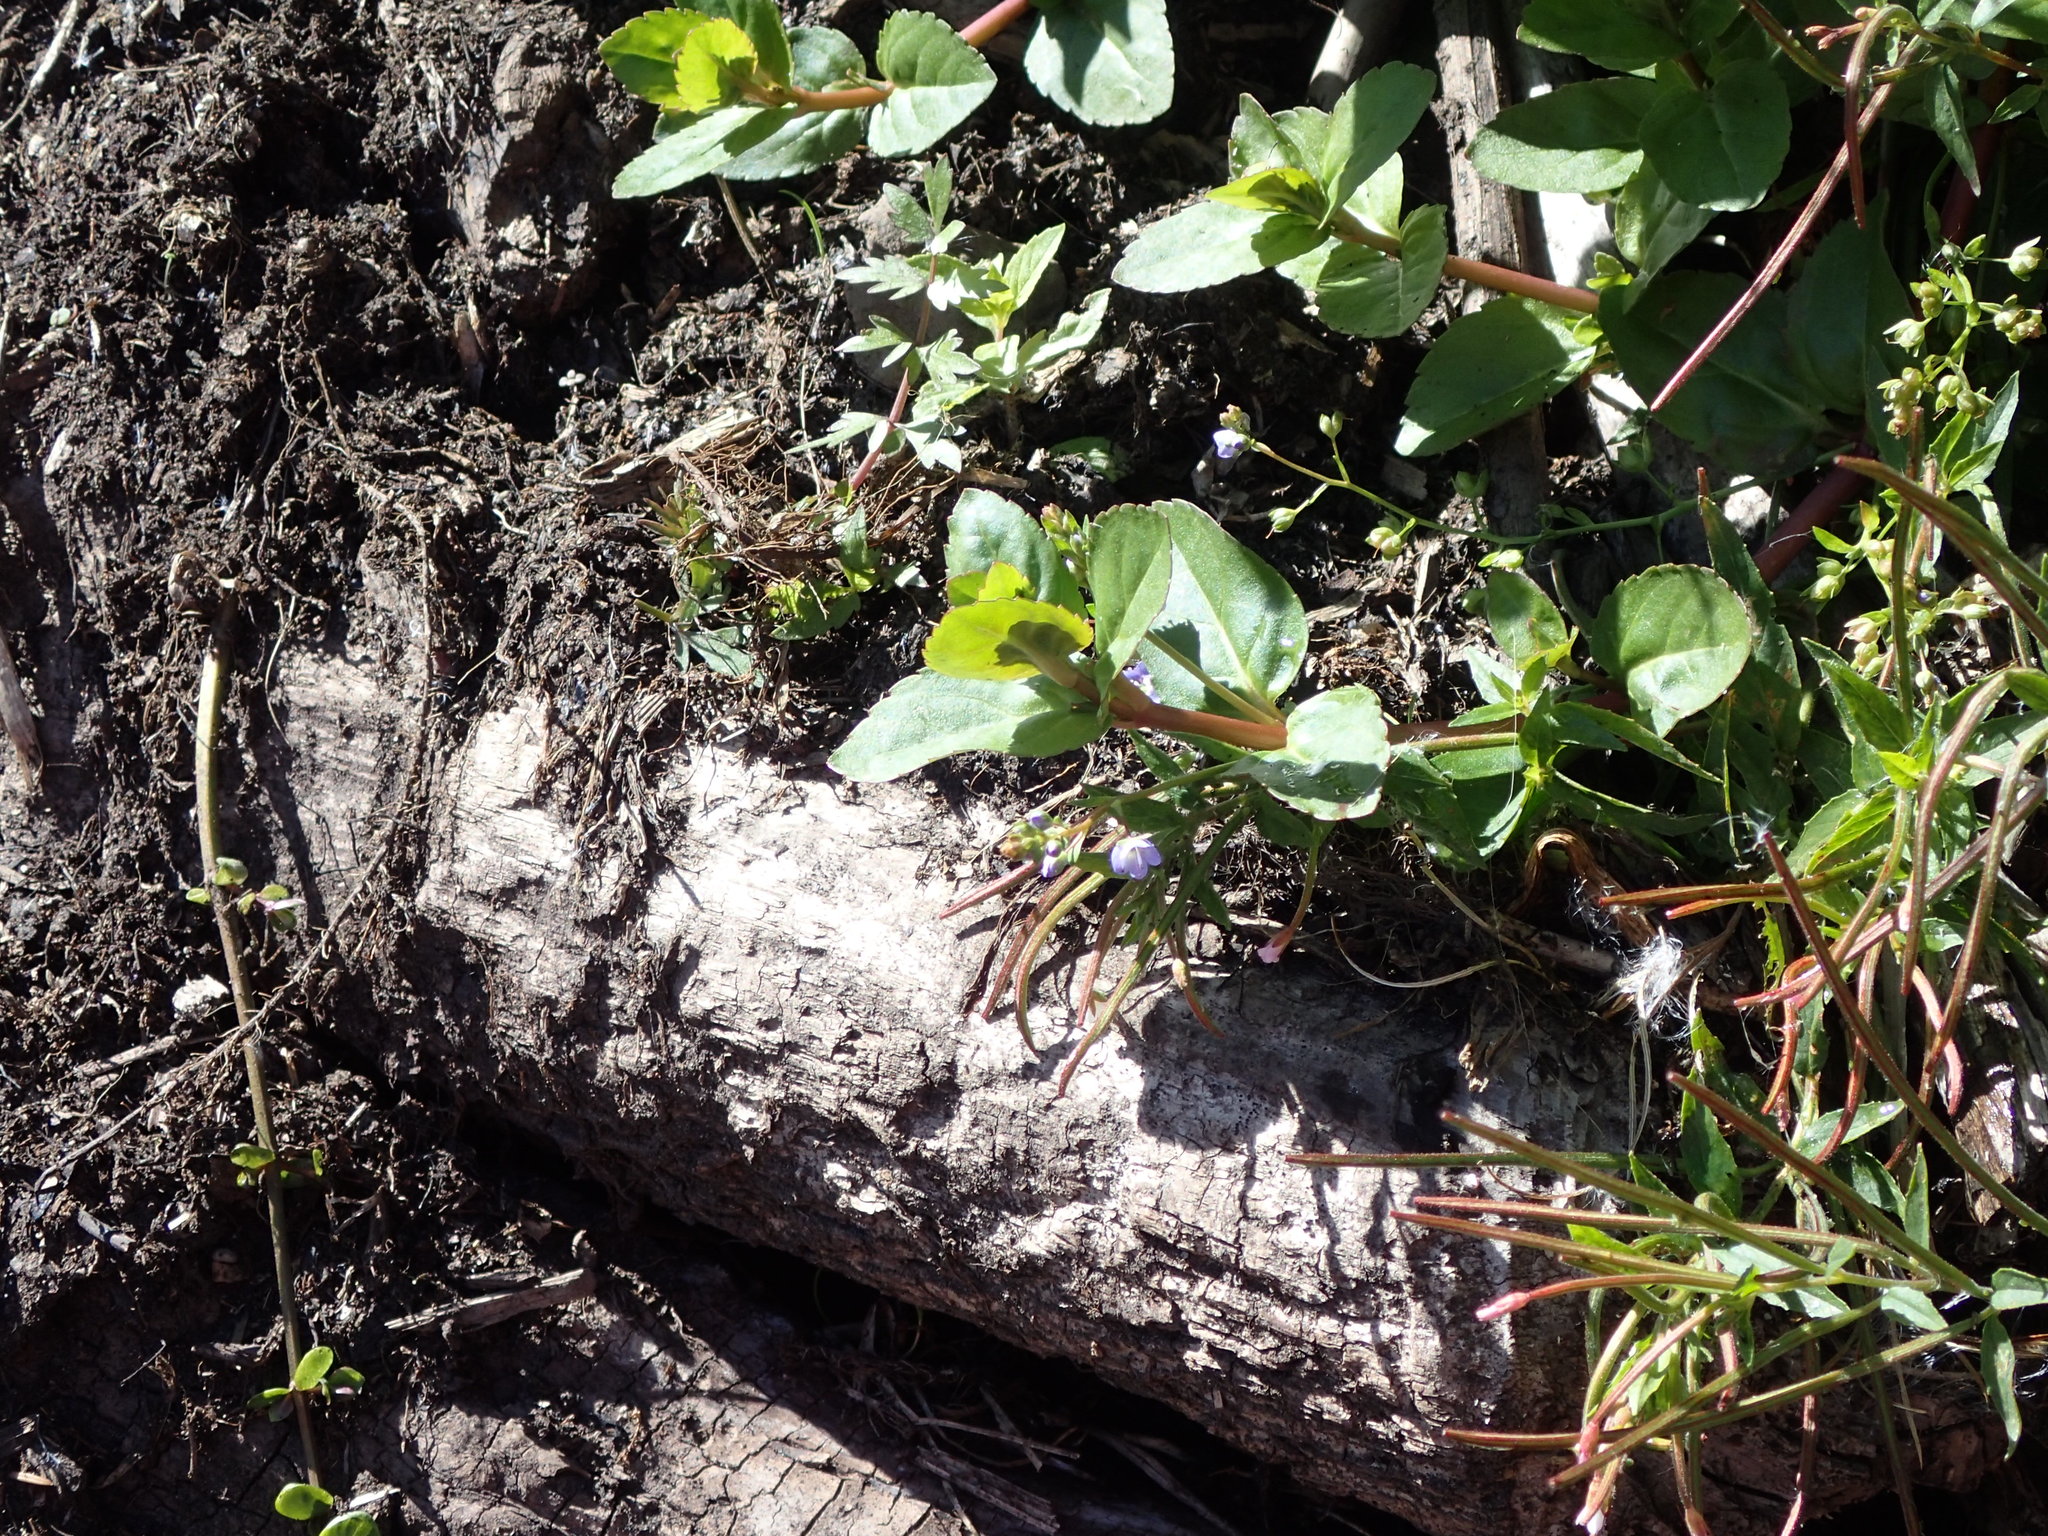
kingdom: Plantae
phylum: Tracheophyta
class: Magnoliopsida
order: Lamiales
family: Plantaginaceae
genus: Veronica
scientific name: Veronica americana
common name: American brooklime
